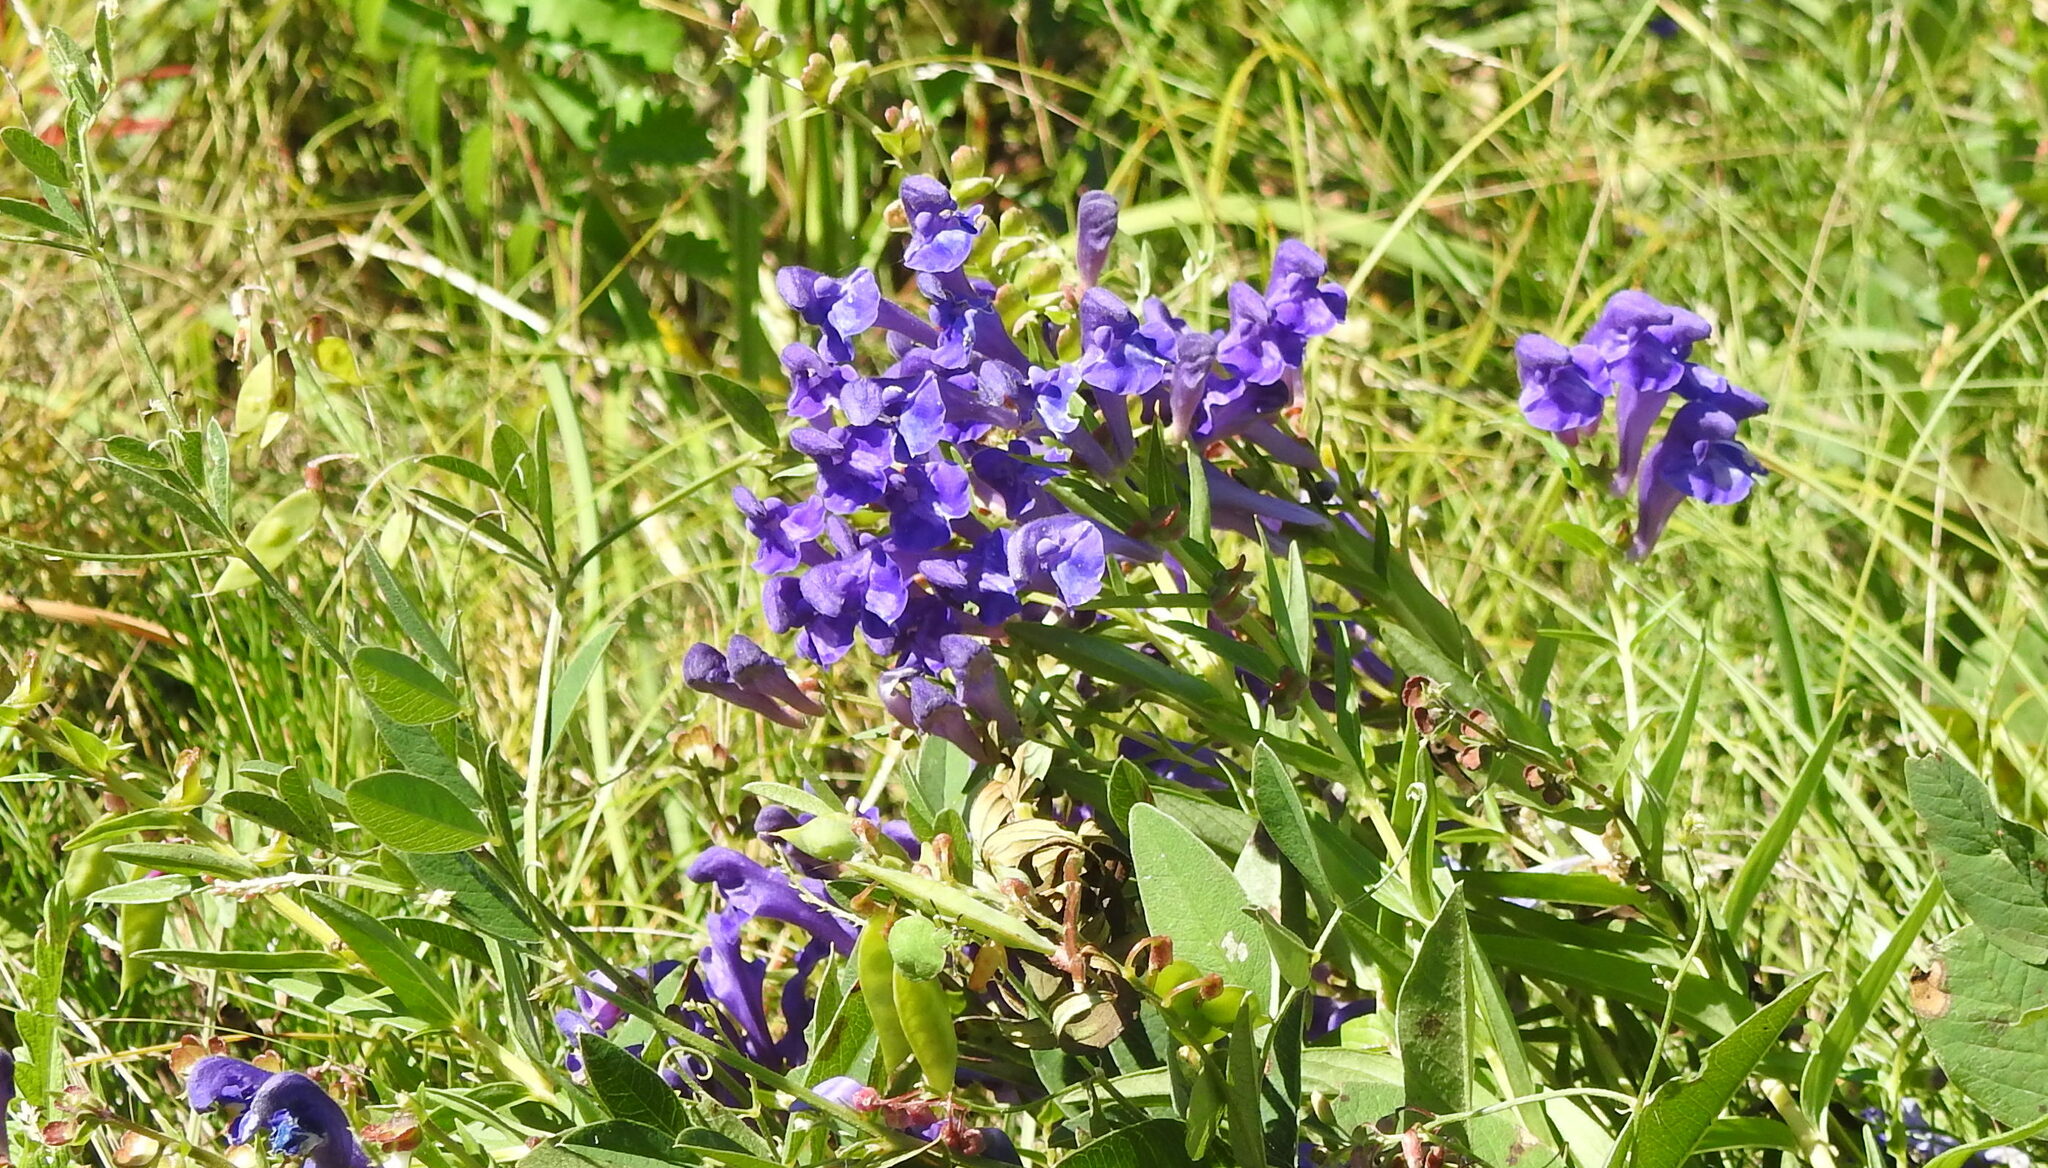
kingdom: Plantae
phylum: Tracheophyta
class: Magnoliopsida
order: Lamiales
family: Lamiaceae
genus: Scutellaria
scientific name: Scutellaria baicalensis
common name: Baikal skullcap
